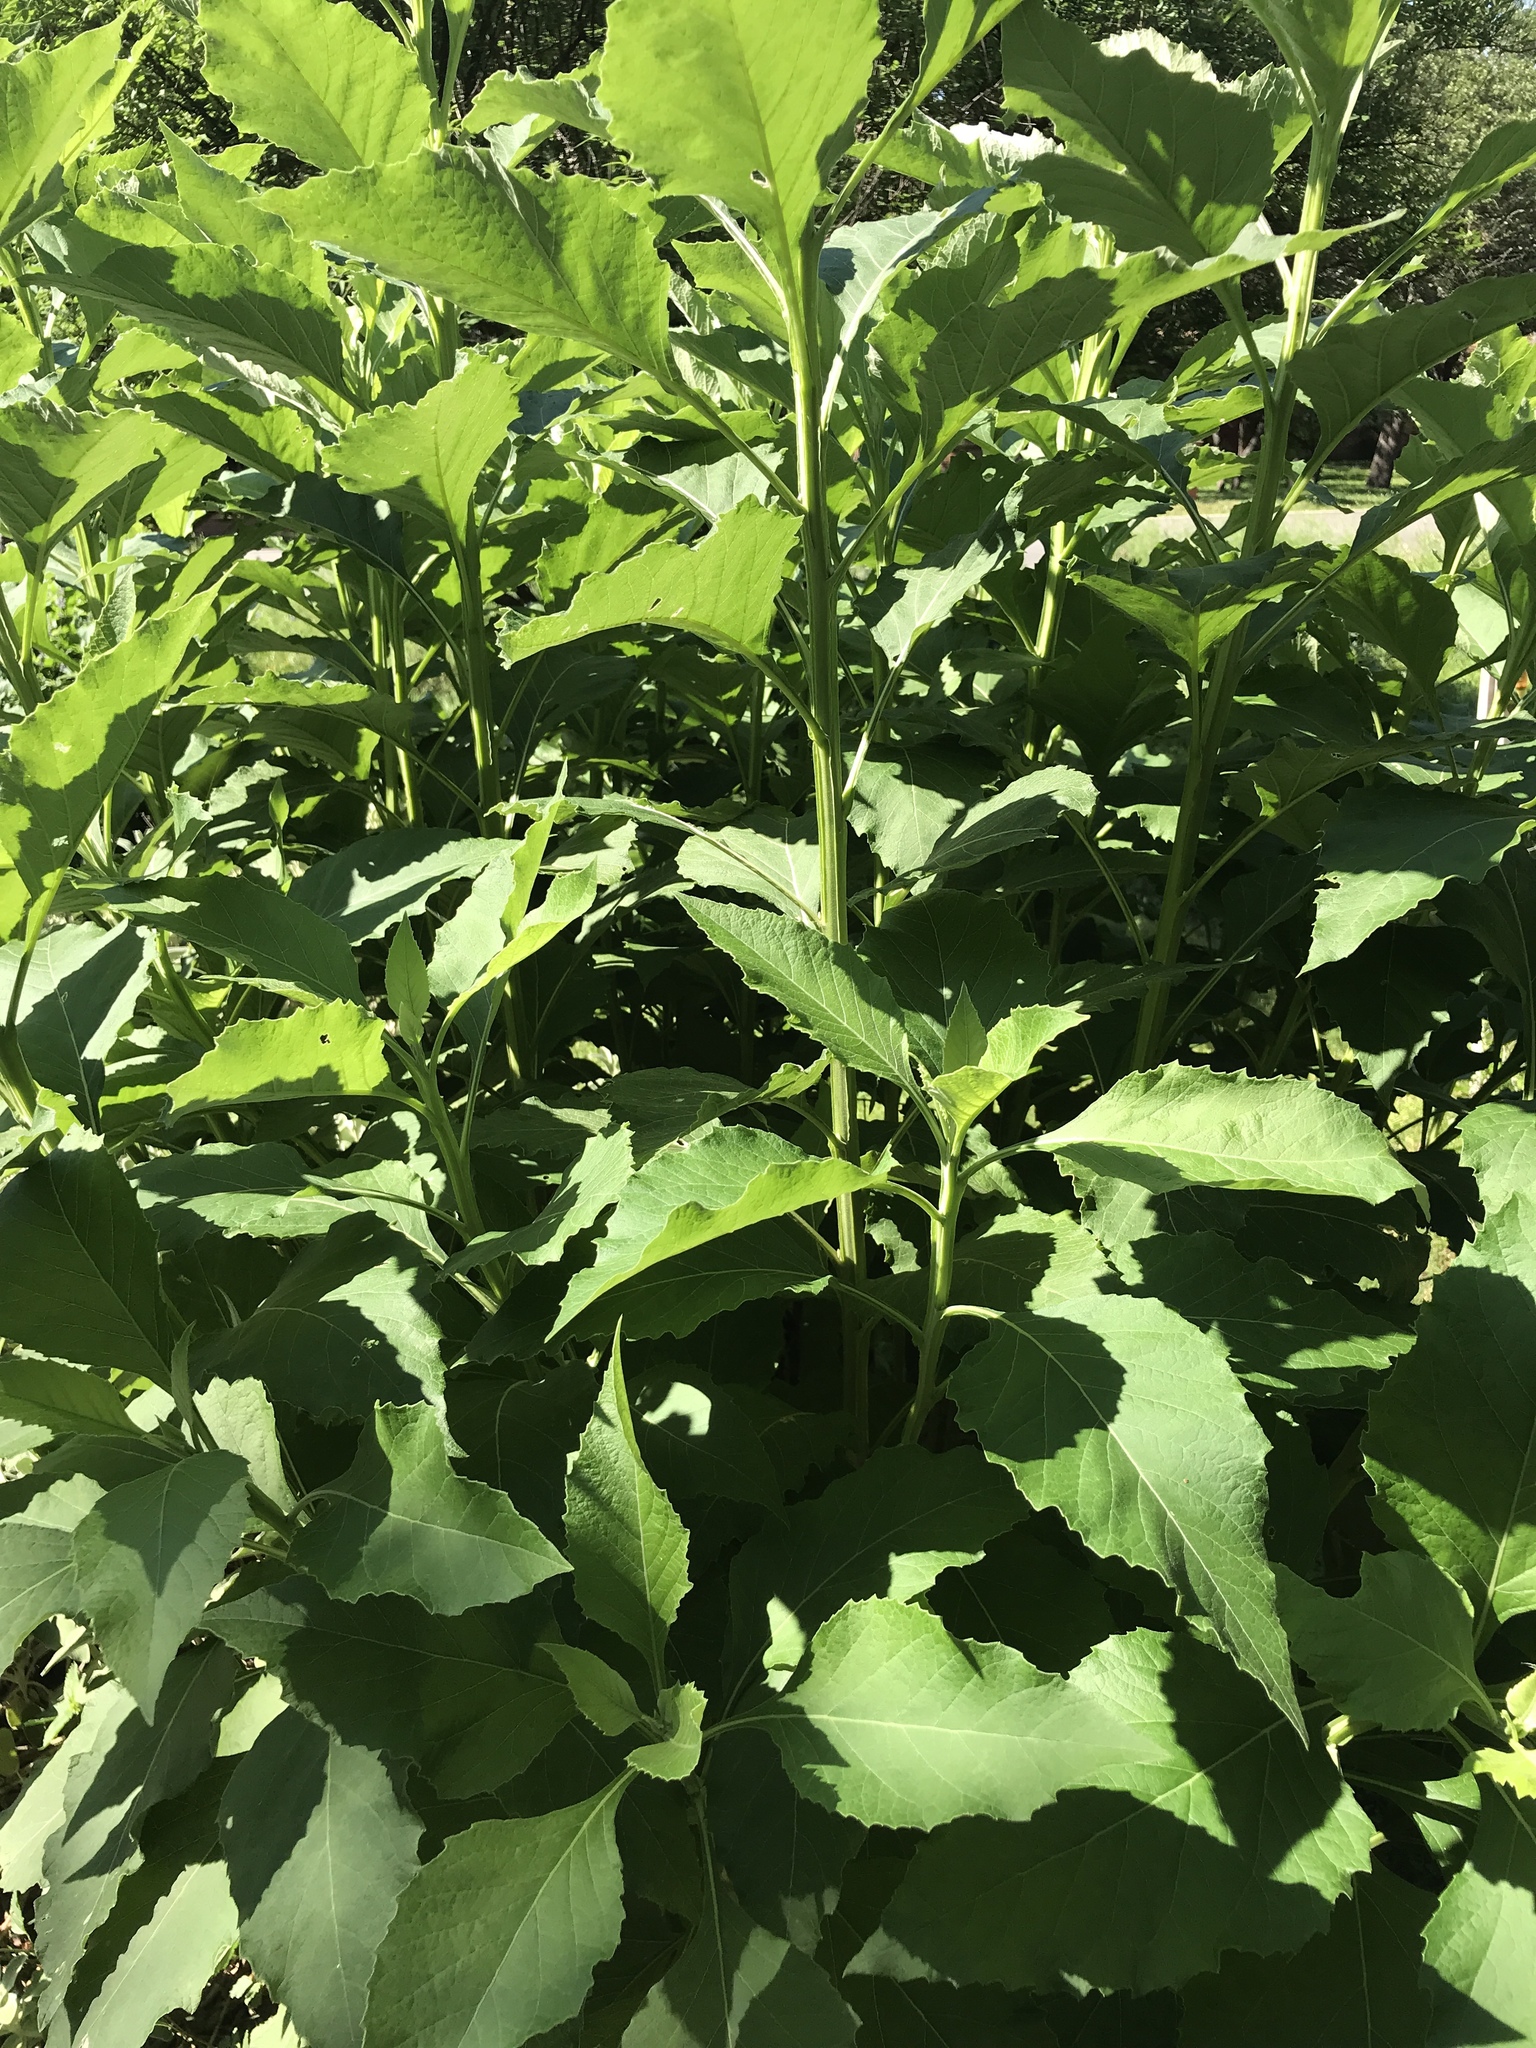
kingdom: Plantae
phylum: Tracheophyta
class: Magnoliopsida
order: Asterales
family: Asteraceae
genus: Verbesina
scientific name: Verbesina virginica
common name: Frostweed
